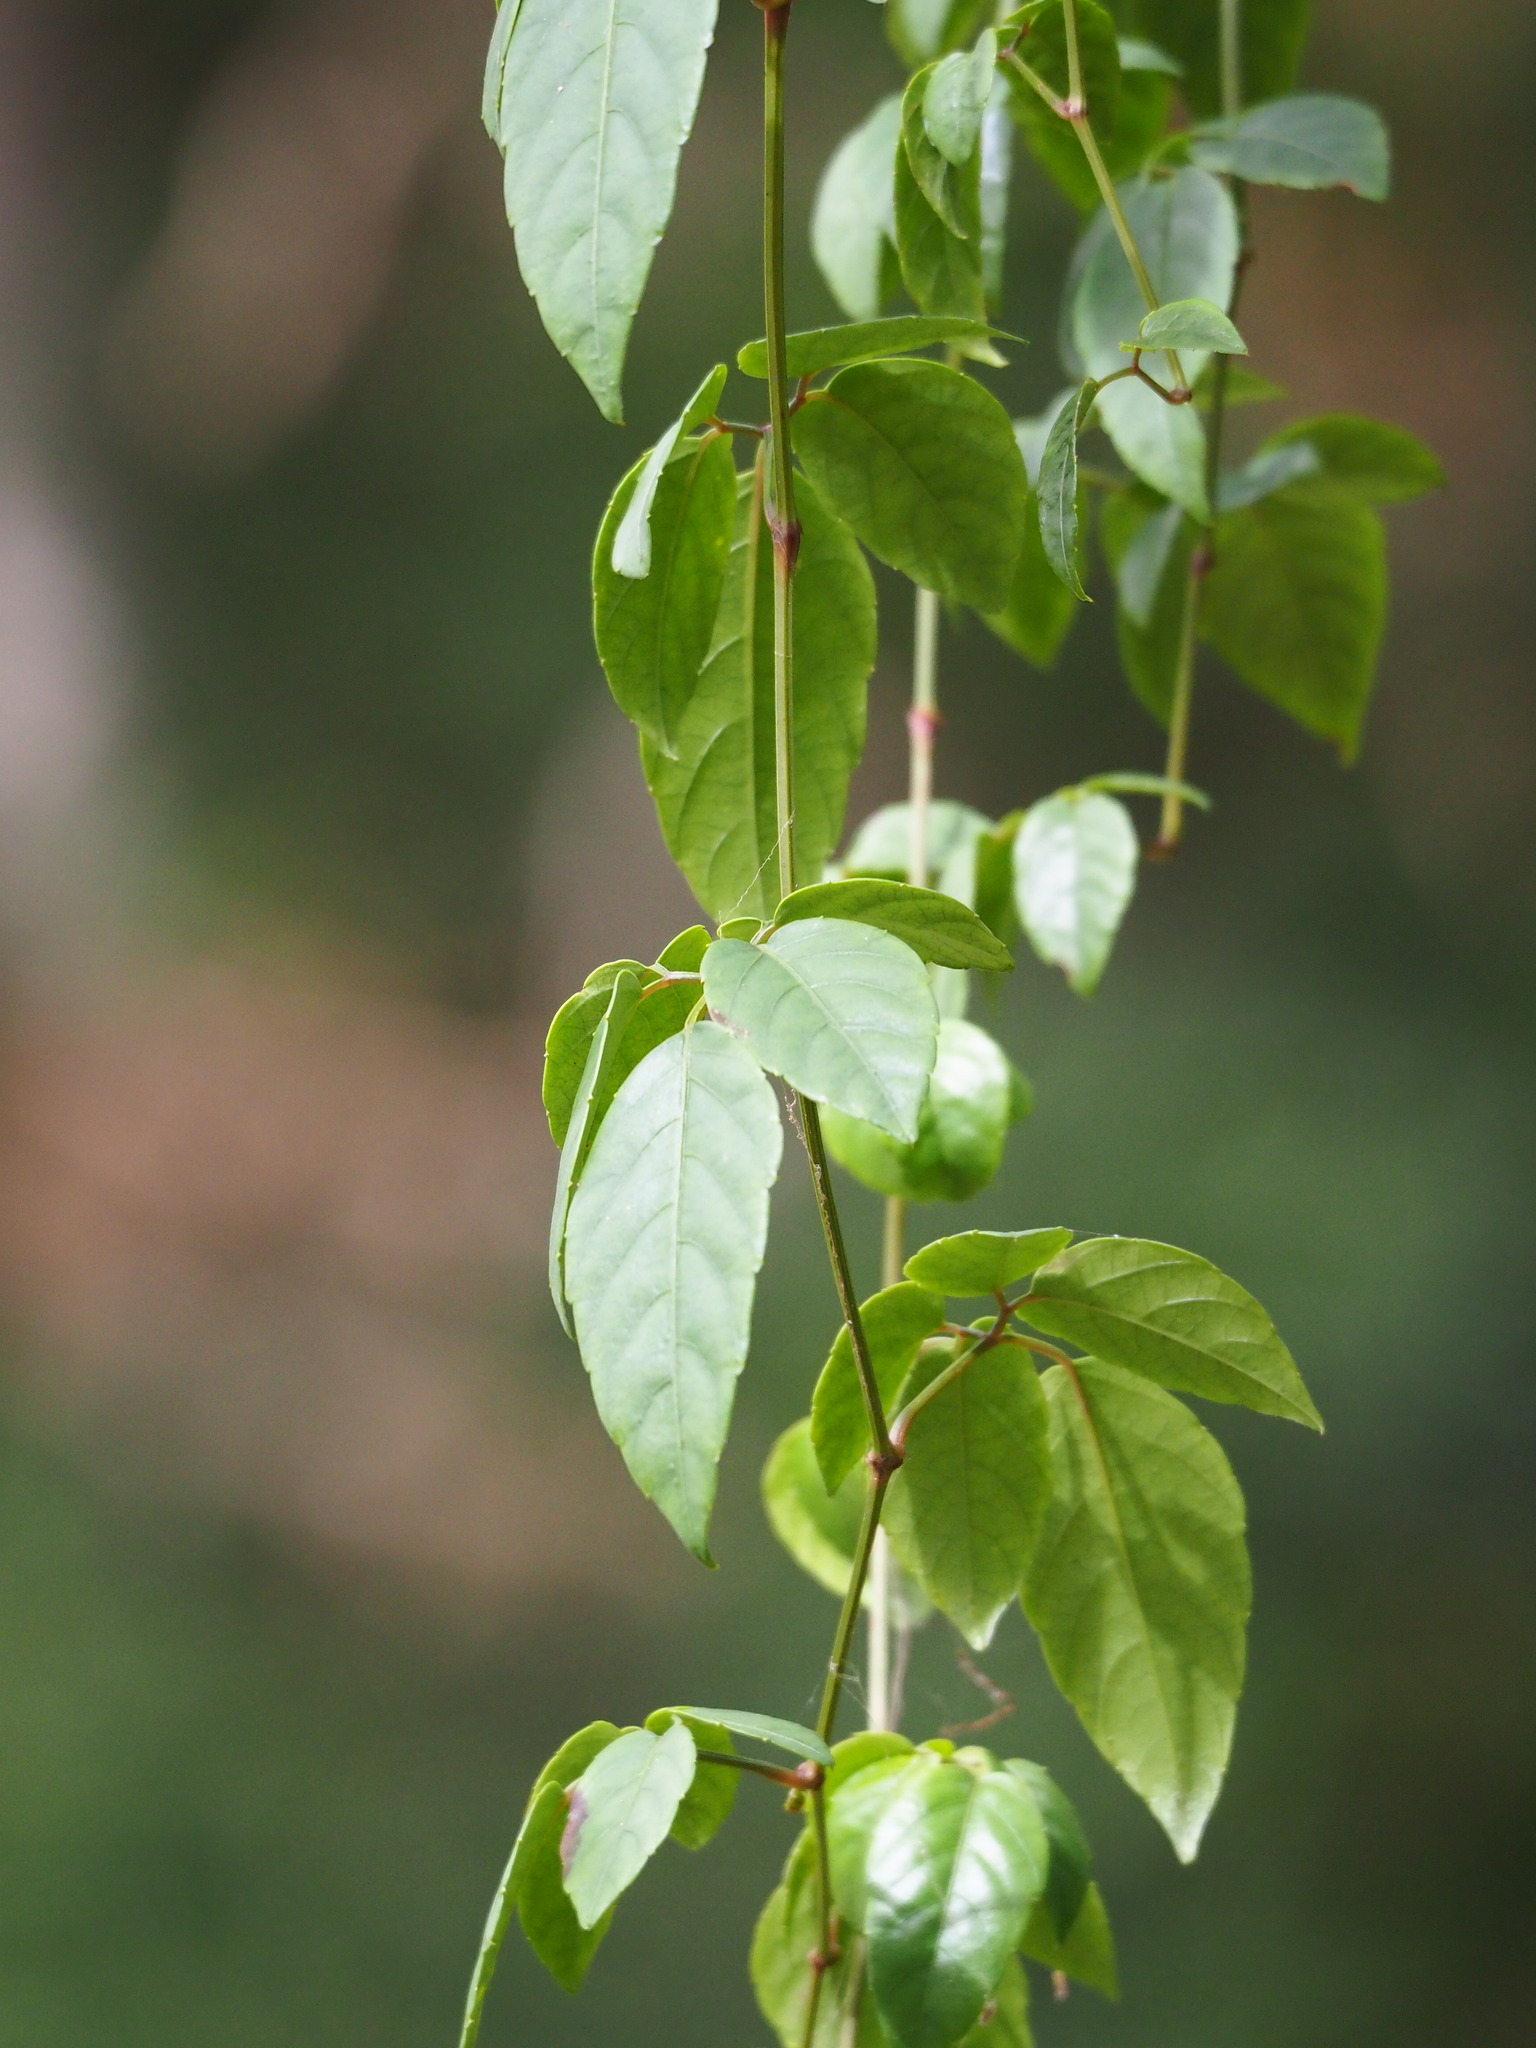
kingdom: Plantae
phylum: Tracheophyta
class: Magnoliopsida
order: Vitales
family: Vitaceae
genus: Causonis
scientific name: Causonis corniculata
